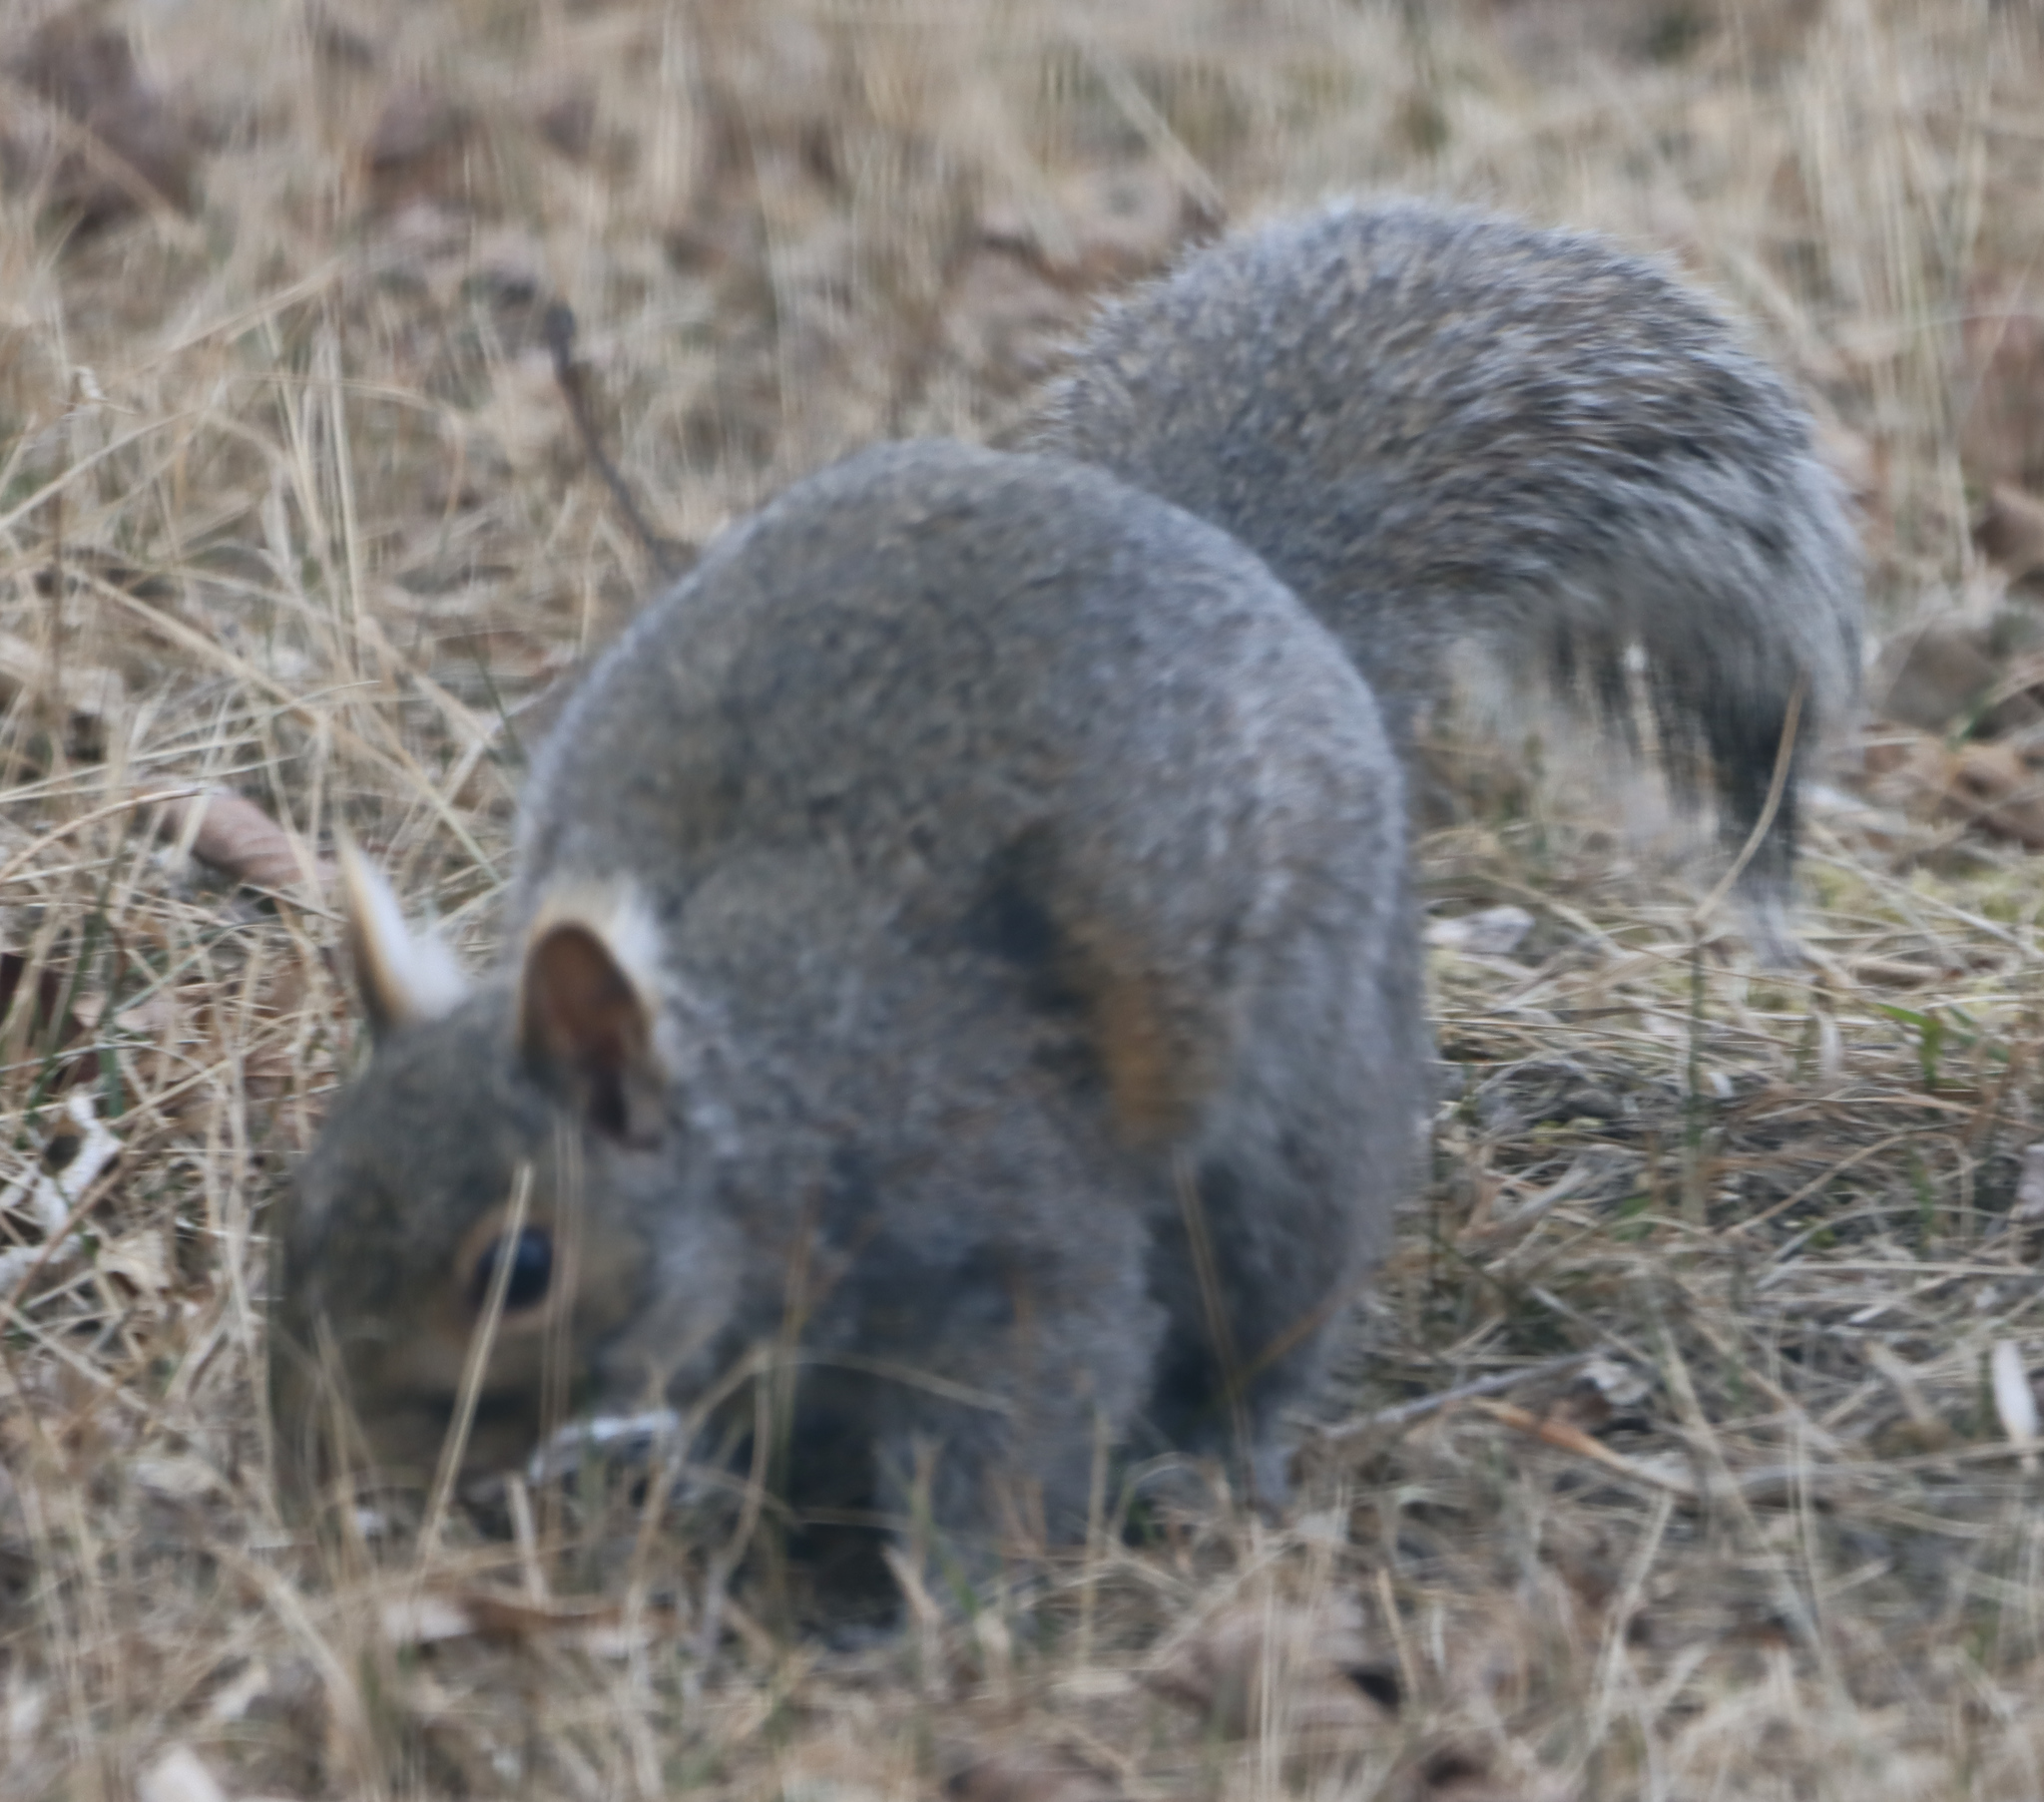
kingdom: Animalia
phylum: Chordata
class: Mammalia
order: Rodentia
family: Sciuridae
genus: Sciurus
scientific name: Sciurus carolinensis
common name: Eastern gray squirrel
